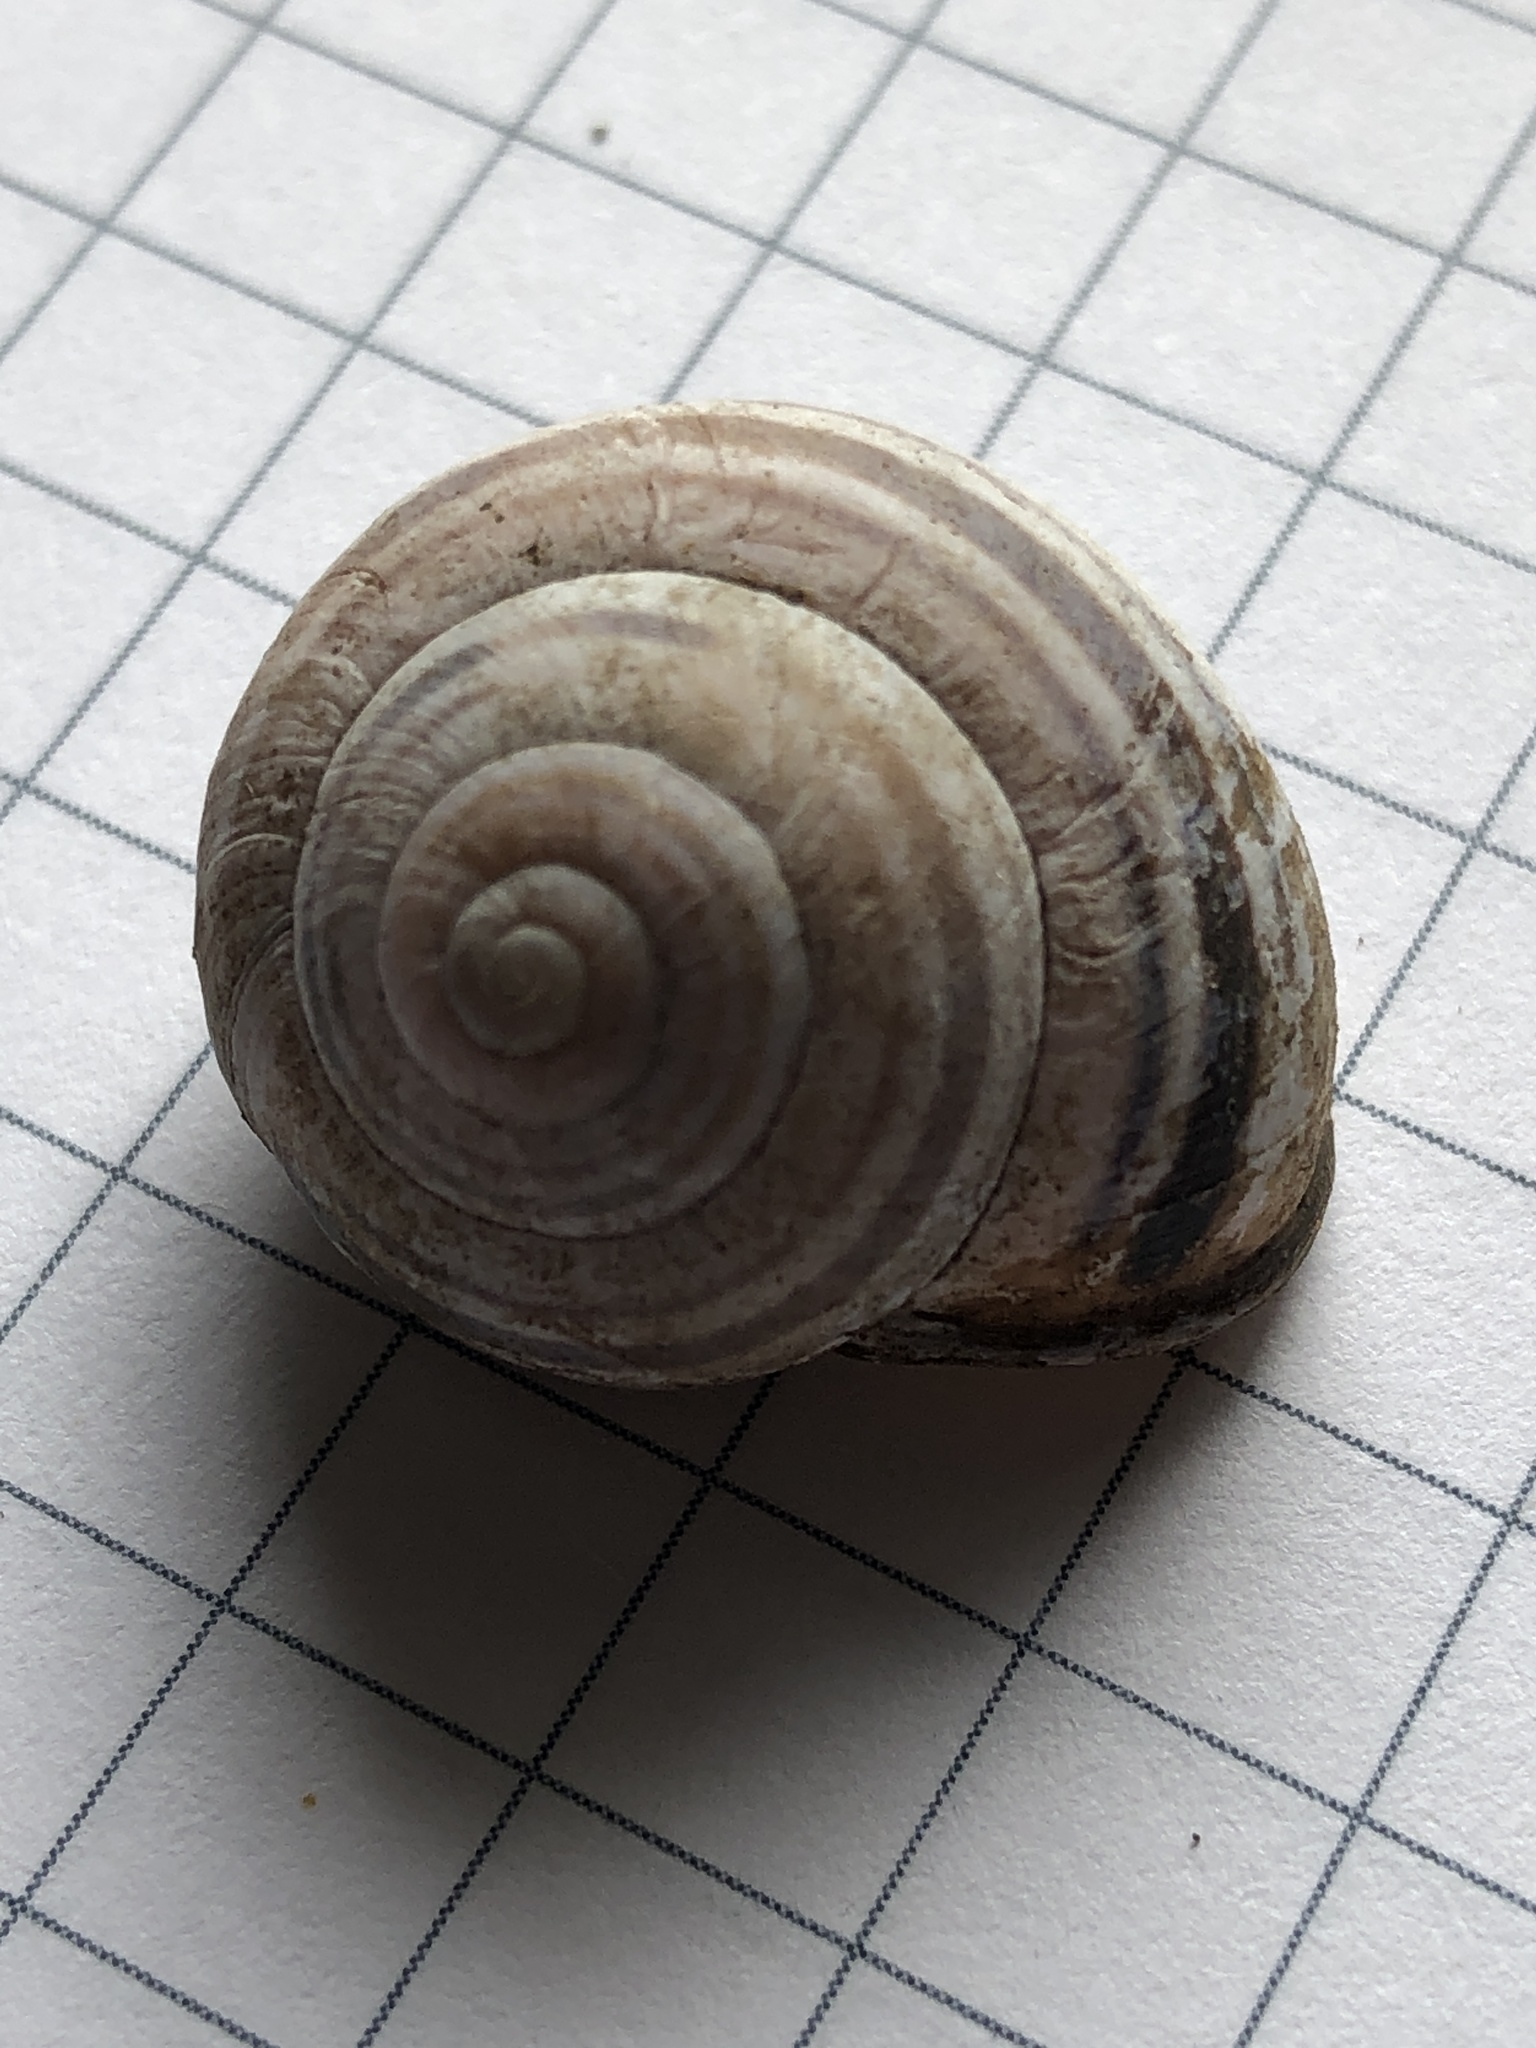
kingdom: Animalia
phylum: Mollusca
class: Gastropoda
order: Stylommatophora
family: Helicidae
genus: Cepaea
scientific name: Cepaea nemoralis
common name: Grovesnail
